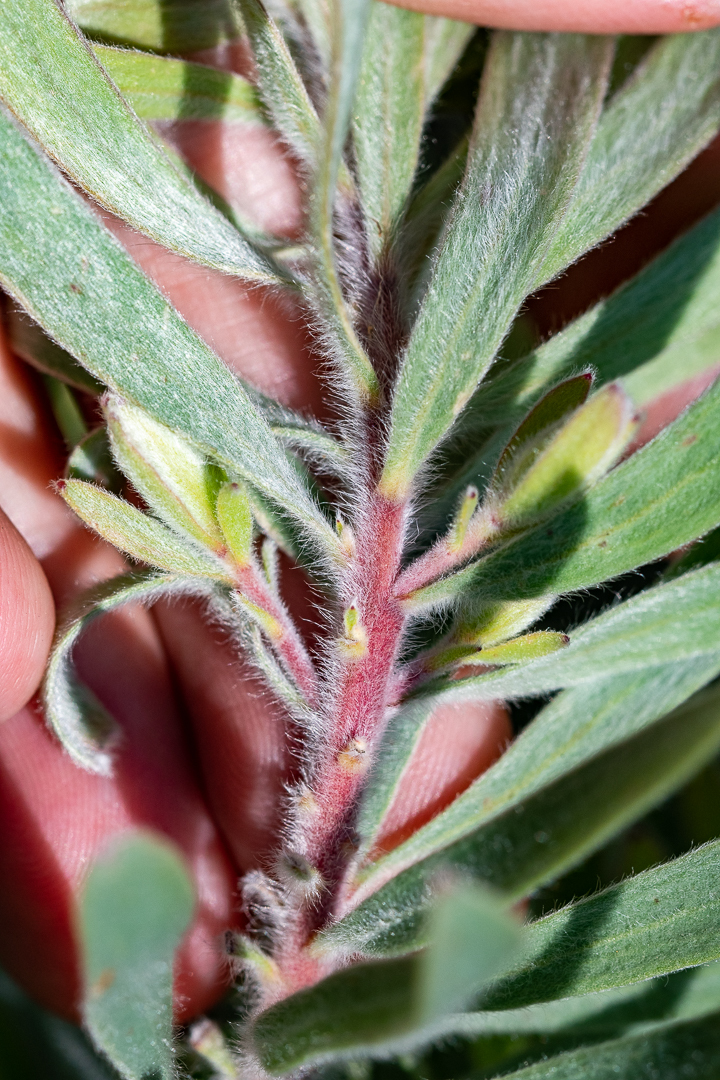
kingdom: Plantae
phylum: Tracheophyta
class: Magnoliopsida
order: Proteales
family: Proteaceae
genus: Leucadendron
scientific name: Leucadendron salignum
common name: Common sunshine conebush
